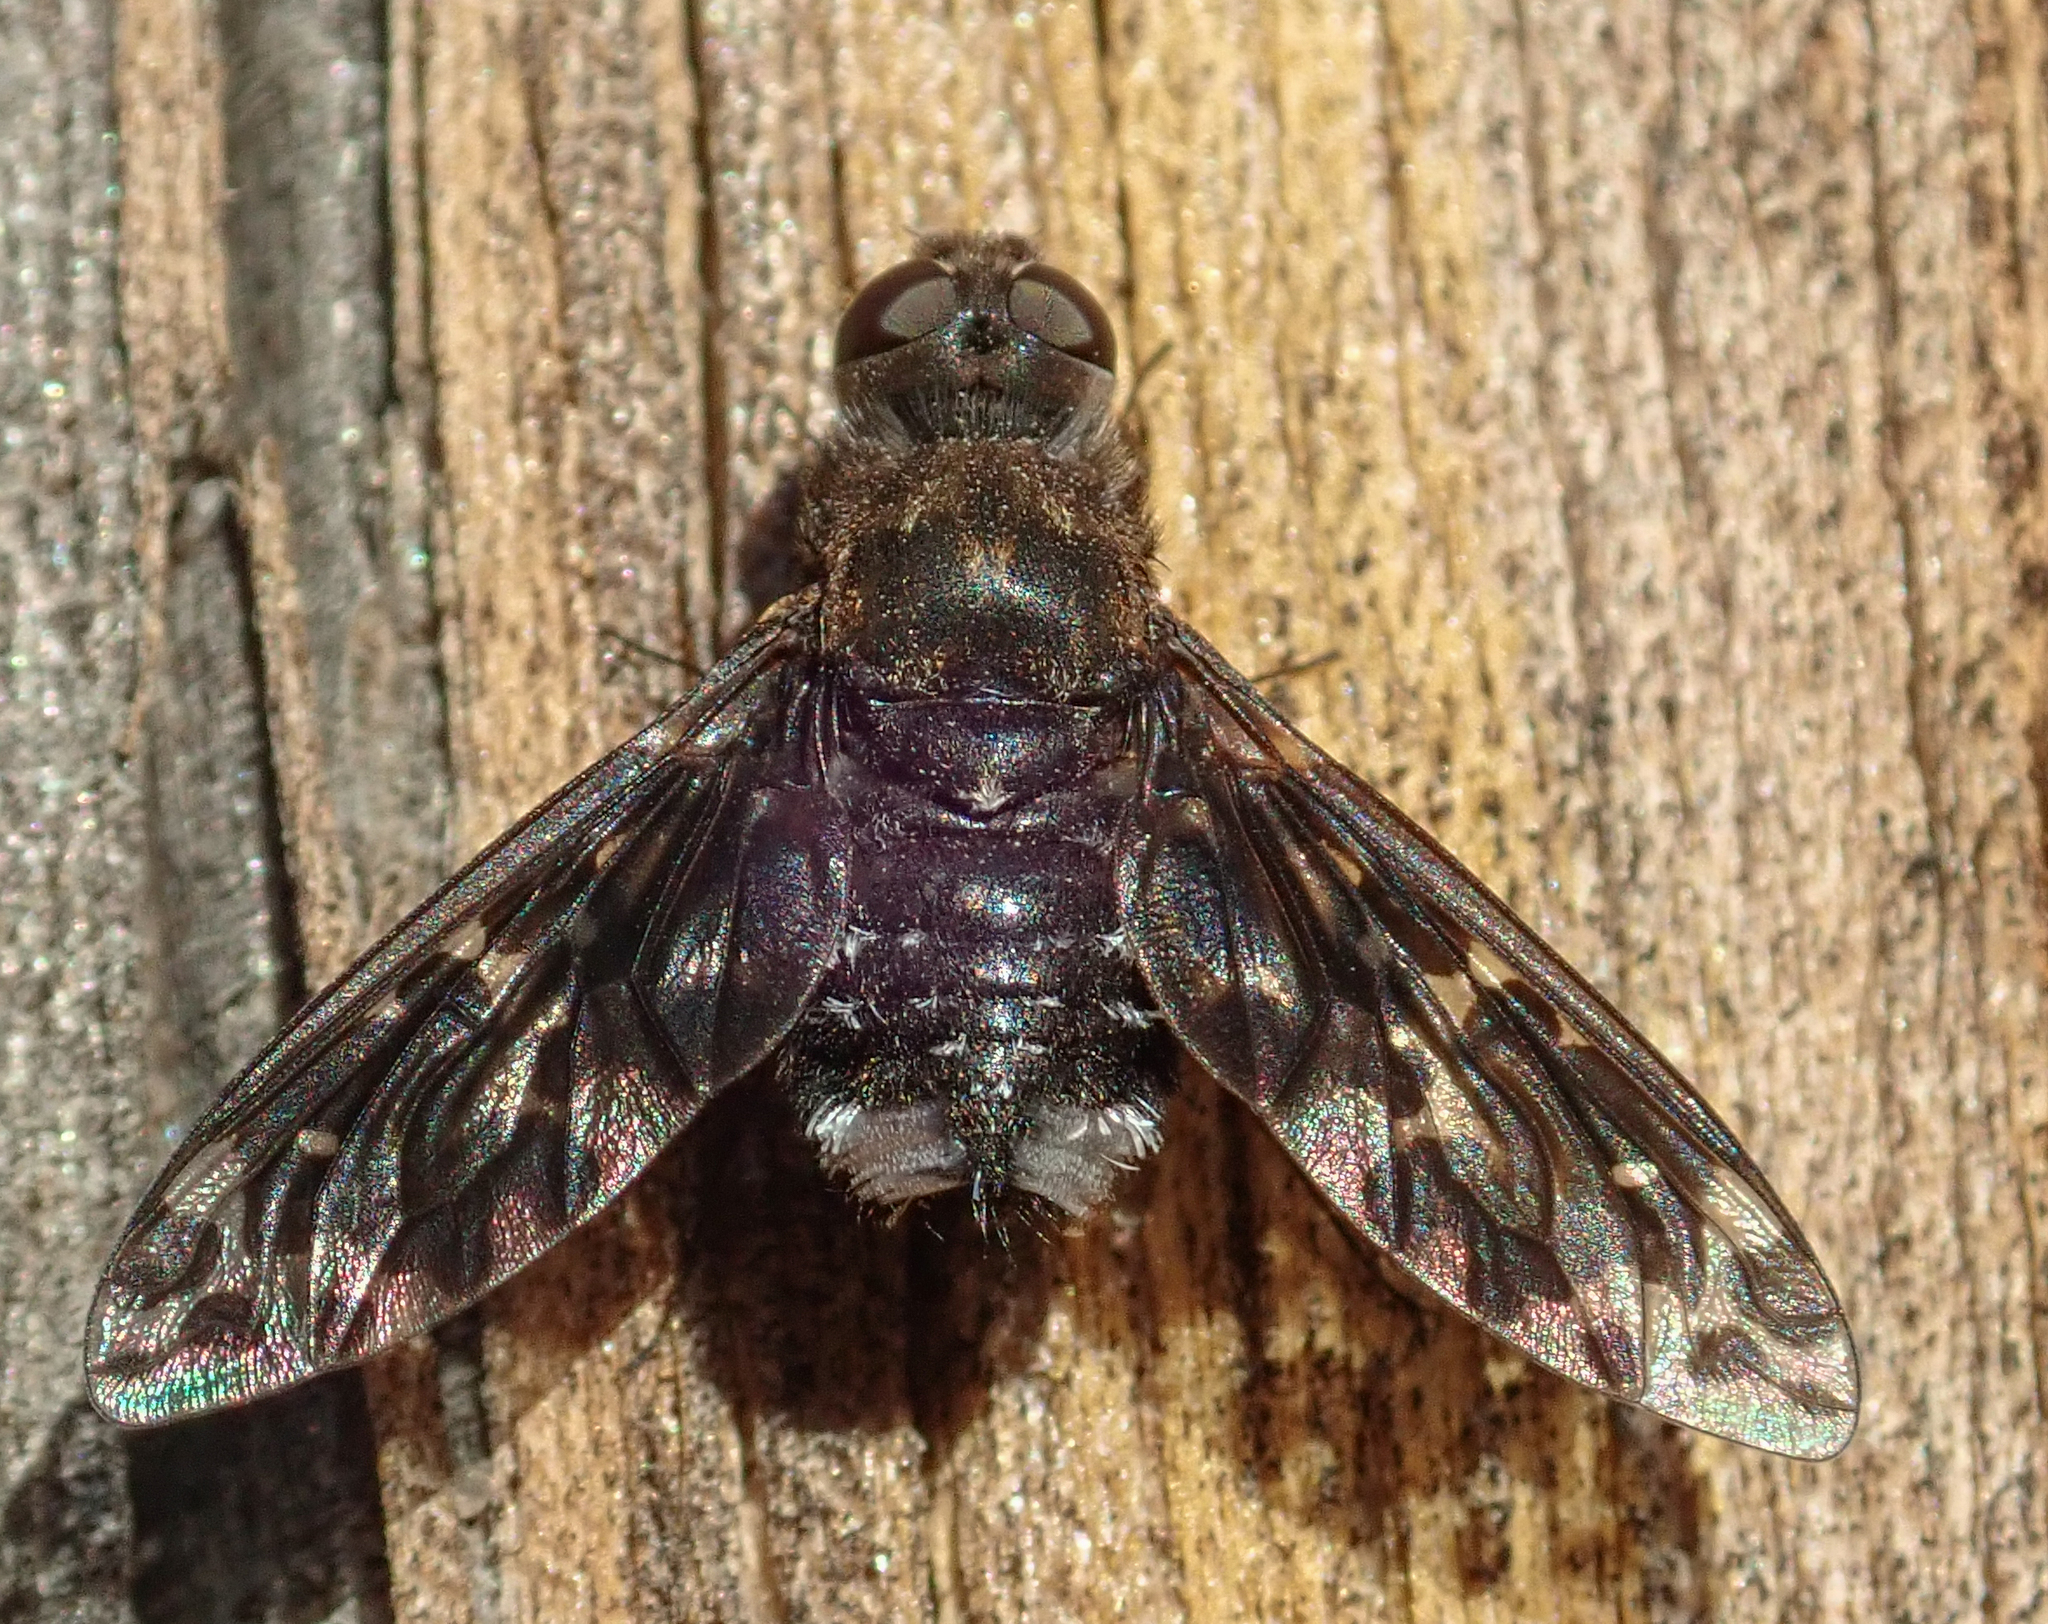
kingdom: Animalia
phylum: Arthropoda
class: Insecta
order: Diptera
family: Bombyliidae
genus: Anthrax
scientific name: Anthrax pithecius
